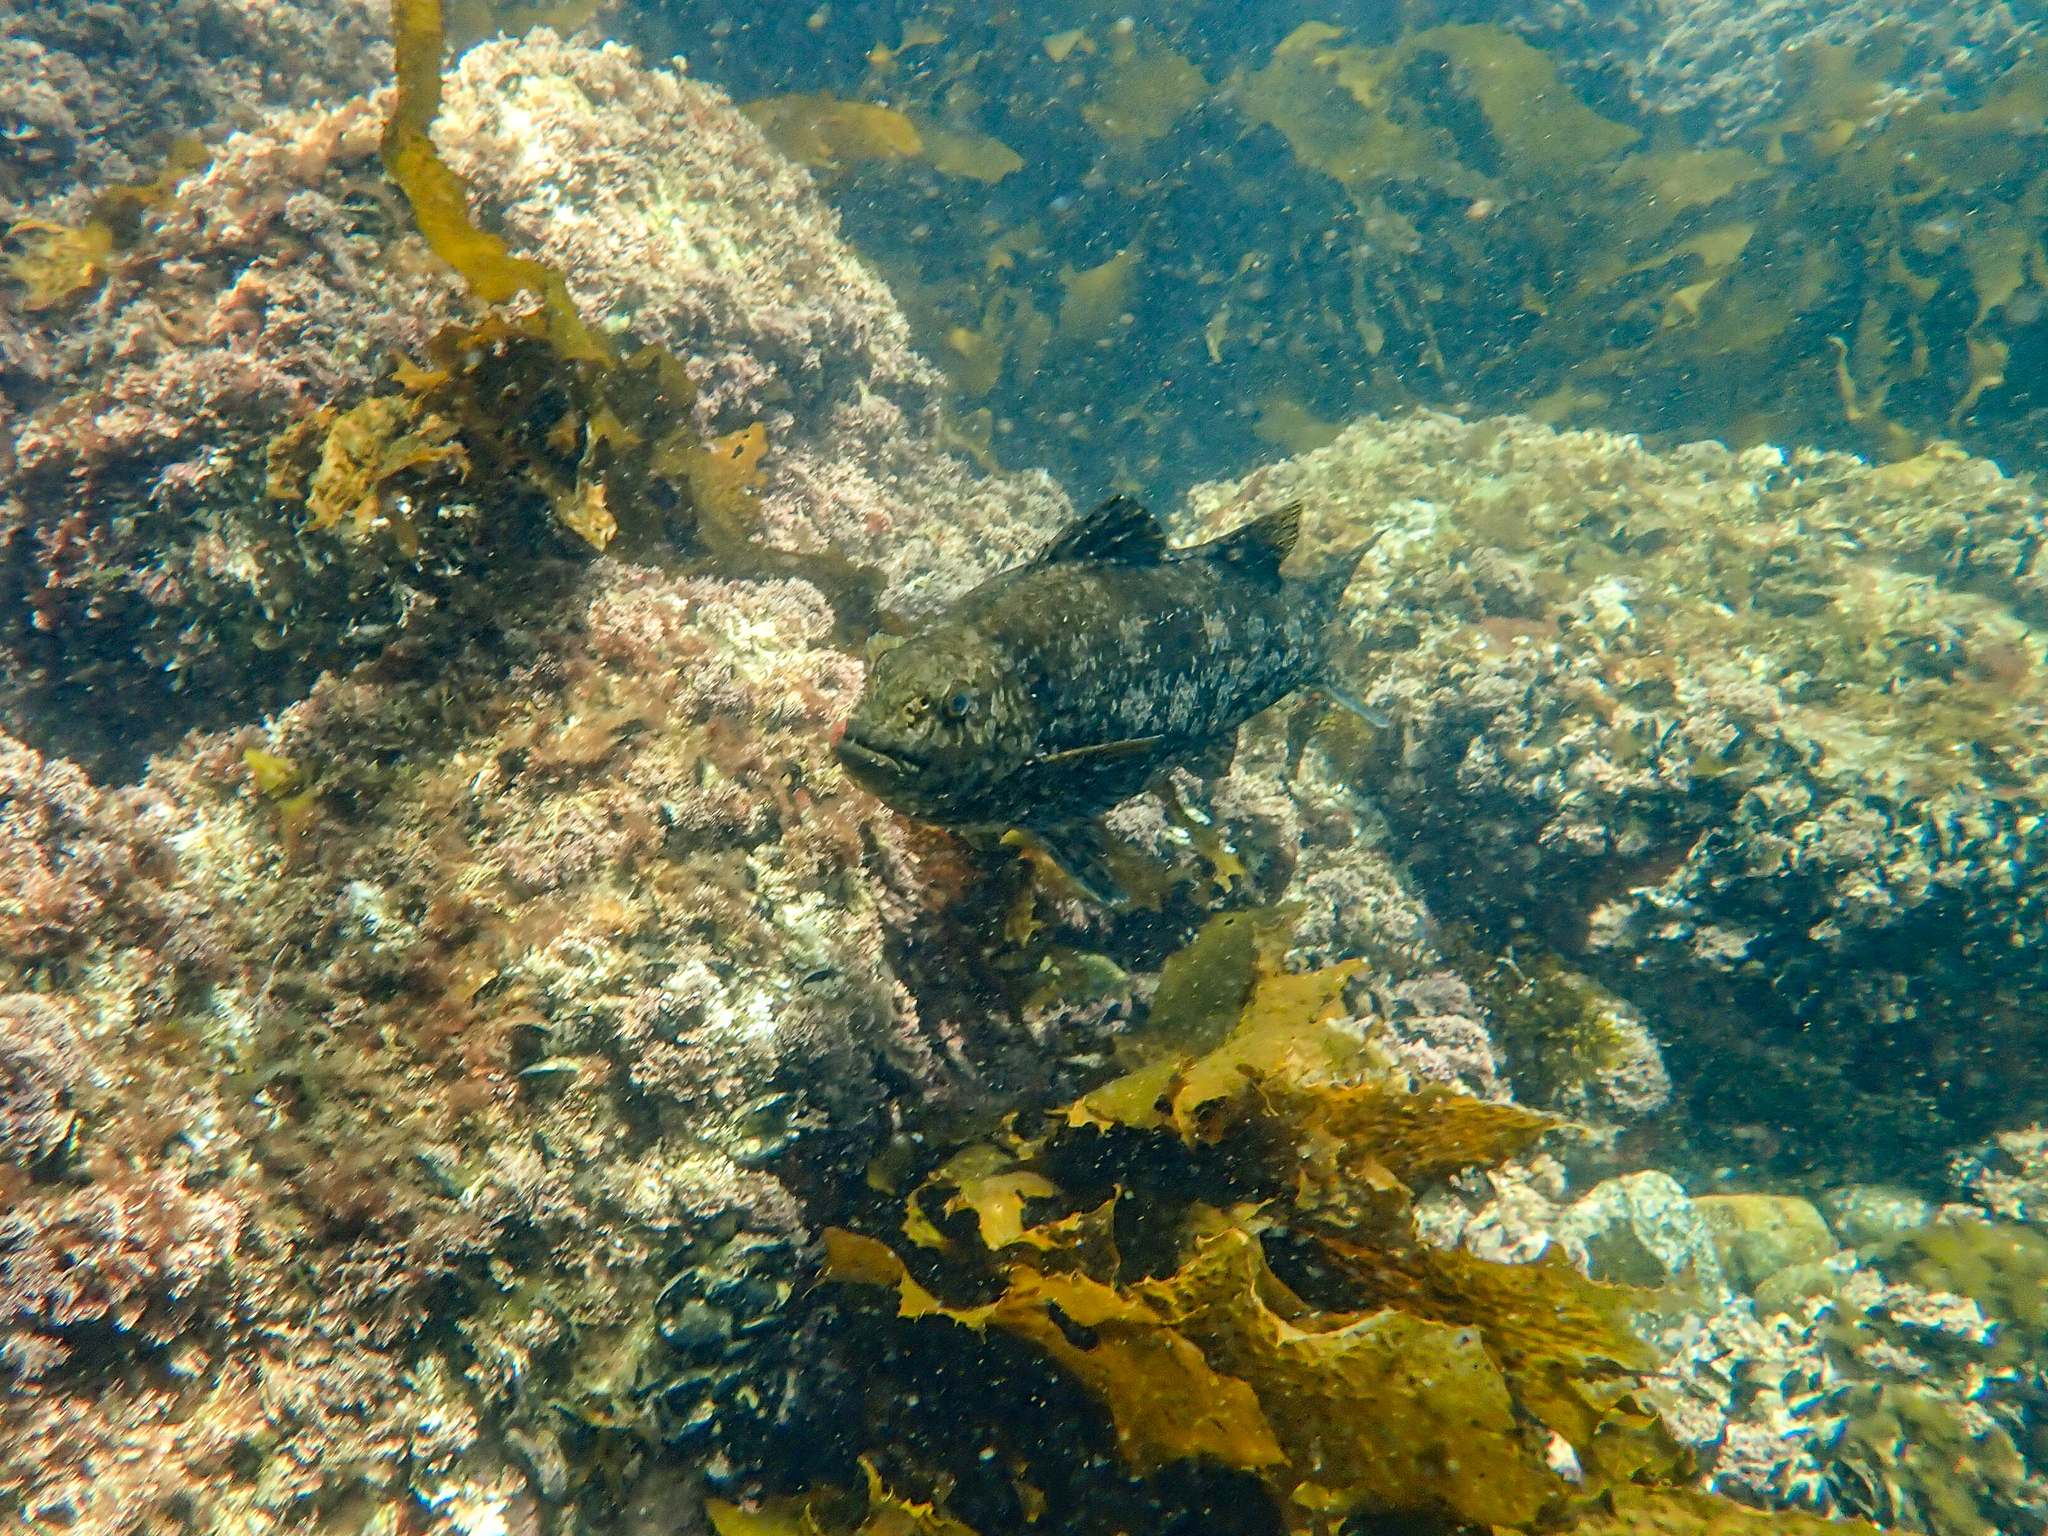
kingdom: Animalia
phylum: Chordata
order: Perciformes
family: Aplodactylidae
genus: Aplodactylus
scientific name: Aplodactylus arctidens
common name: Marblefish
